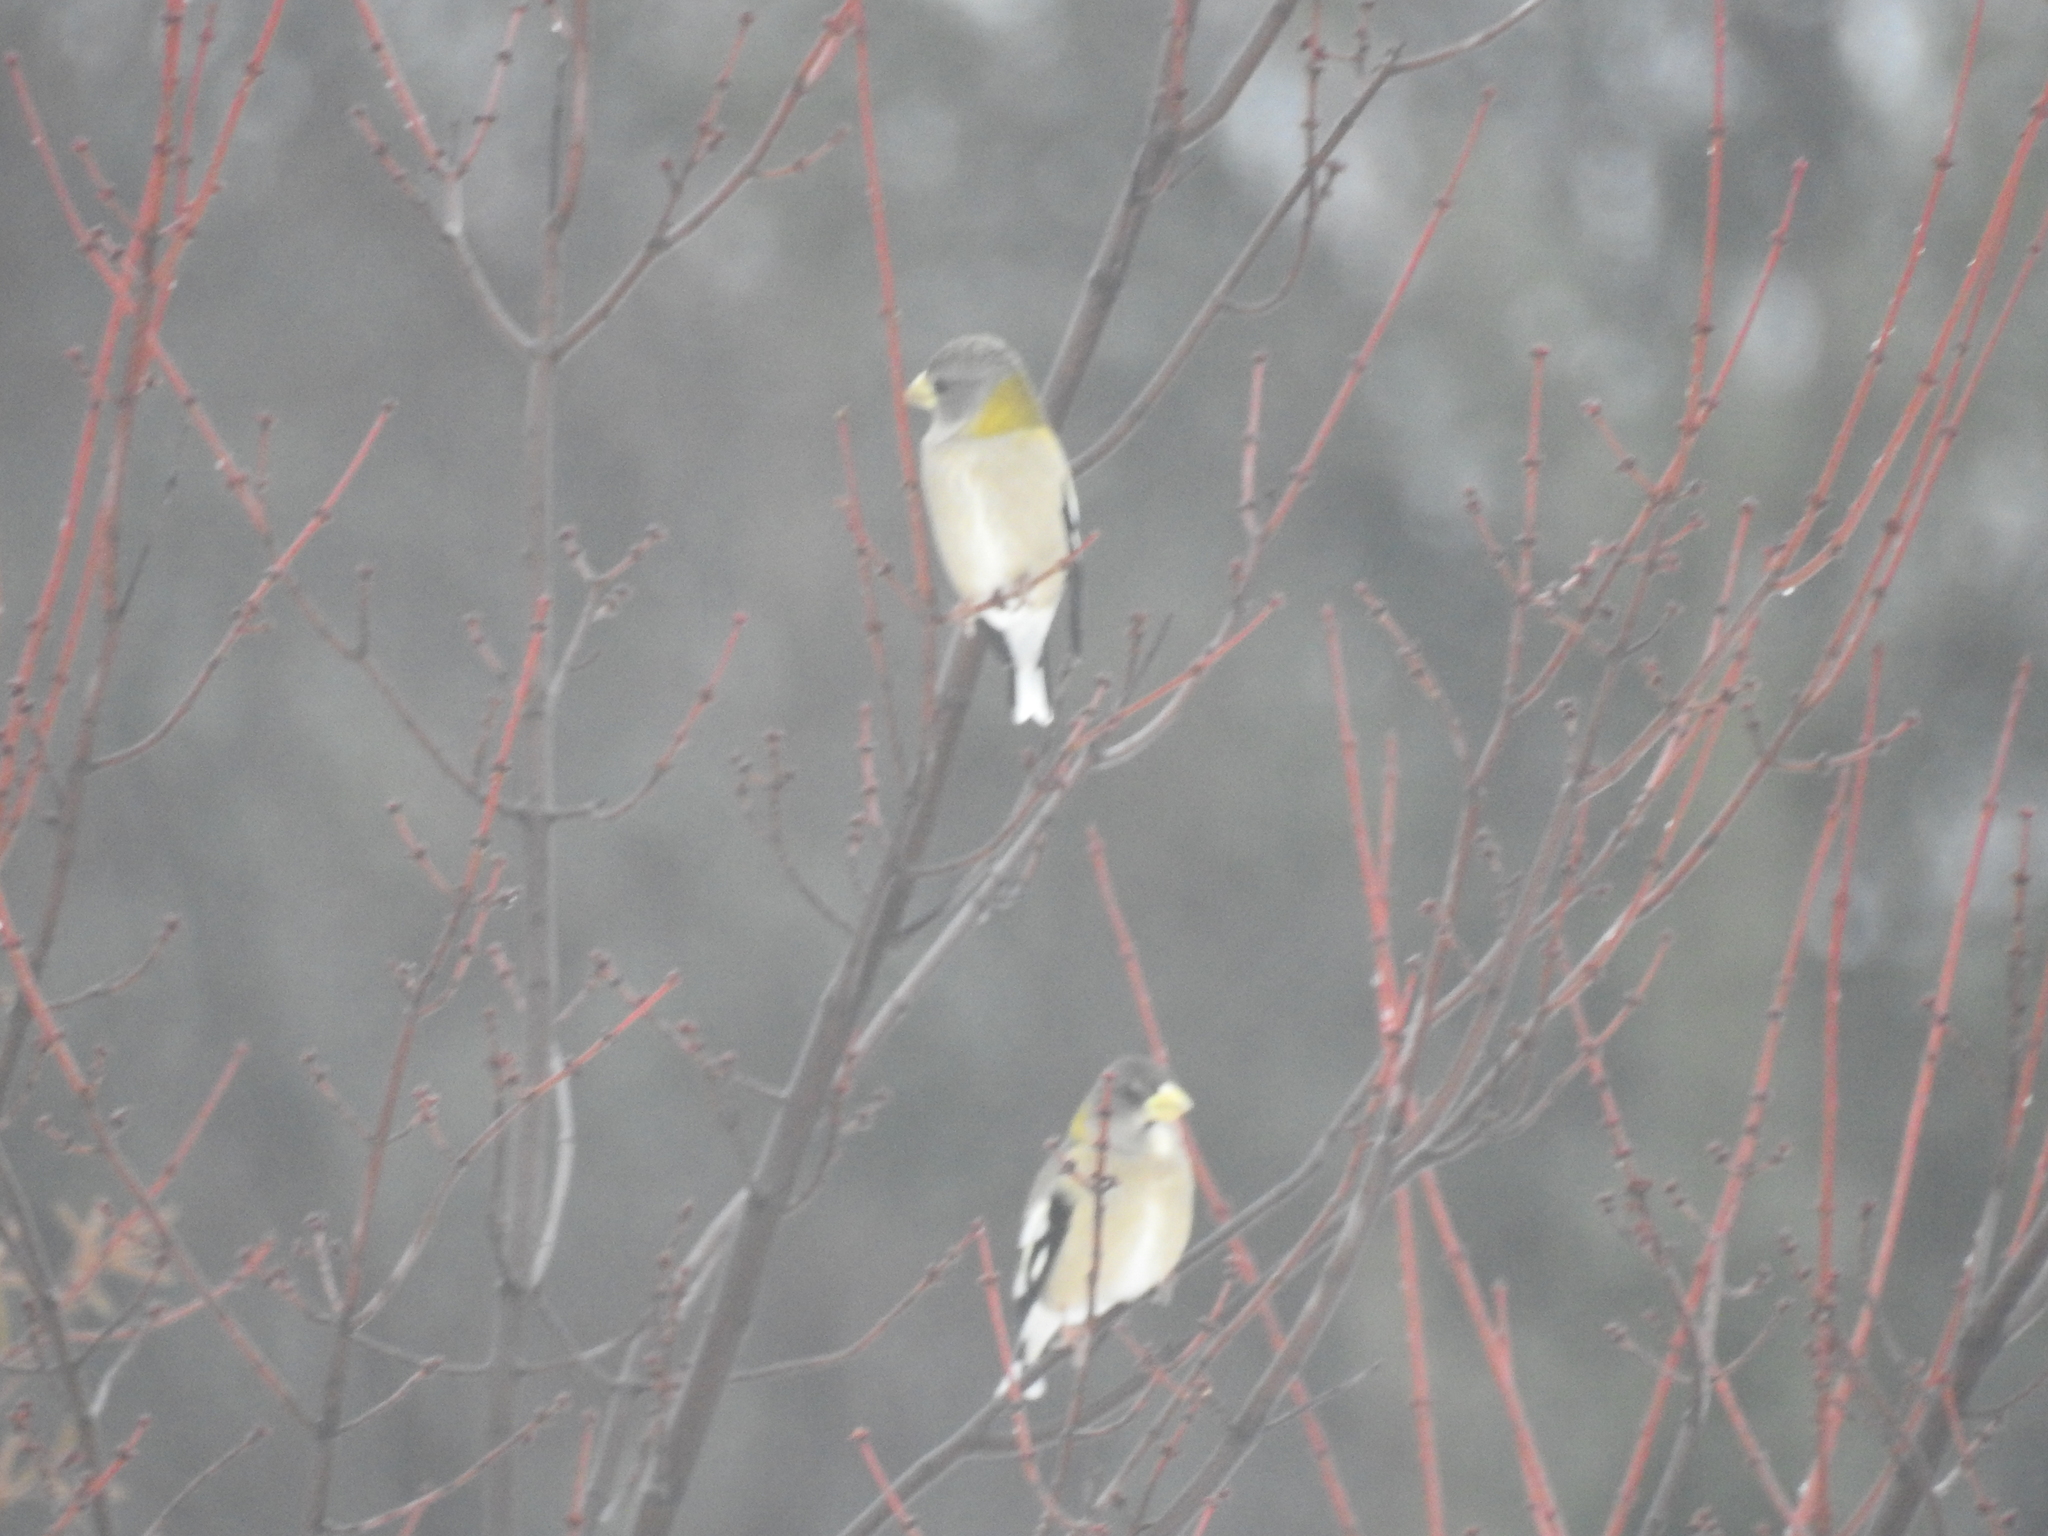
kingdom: Animalia
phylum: Chordata
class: Aves
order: Passeriformes
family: Fringillidae
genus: Hesperiphona
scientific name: Hesperiphona vespertina
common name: Evening grosbeak
